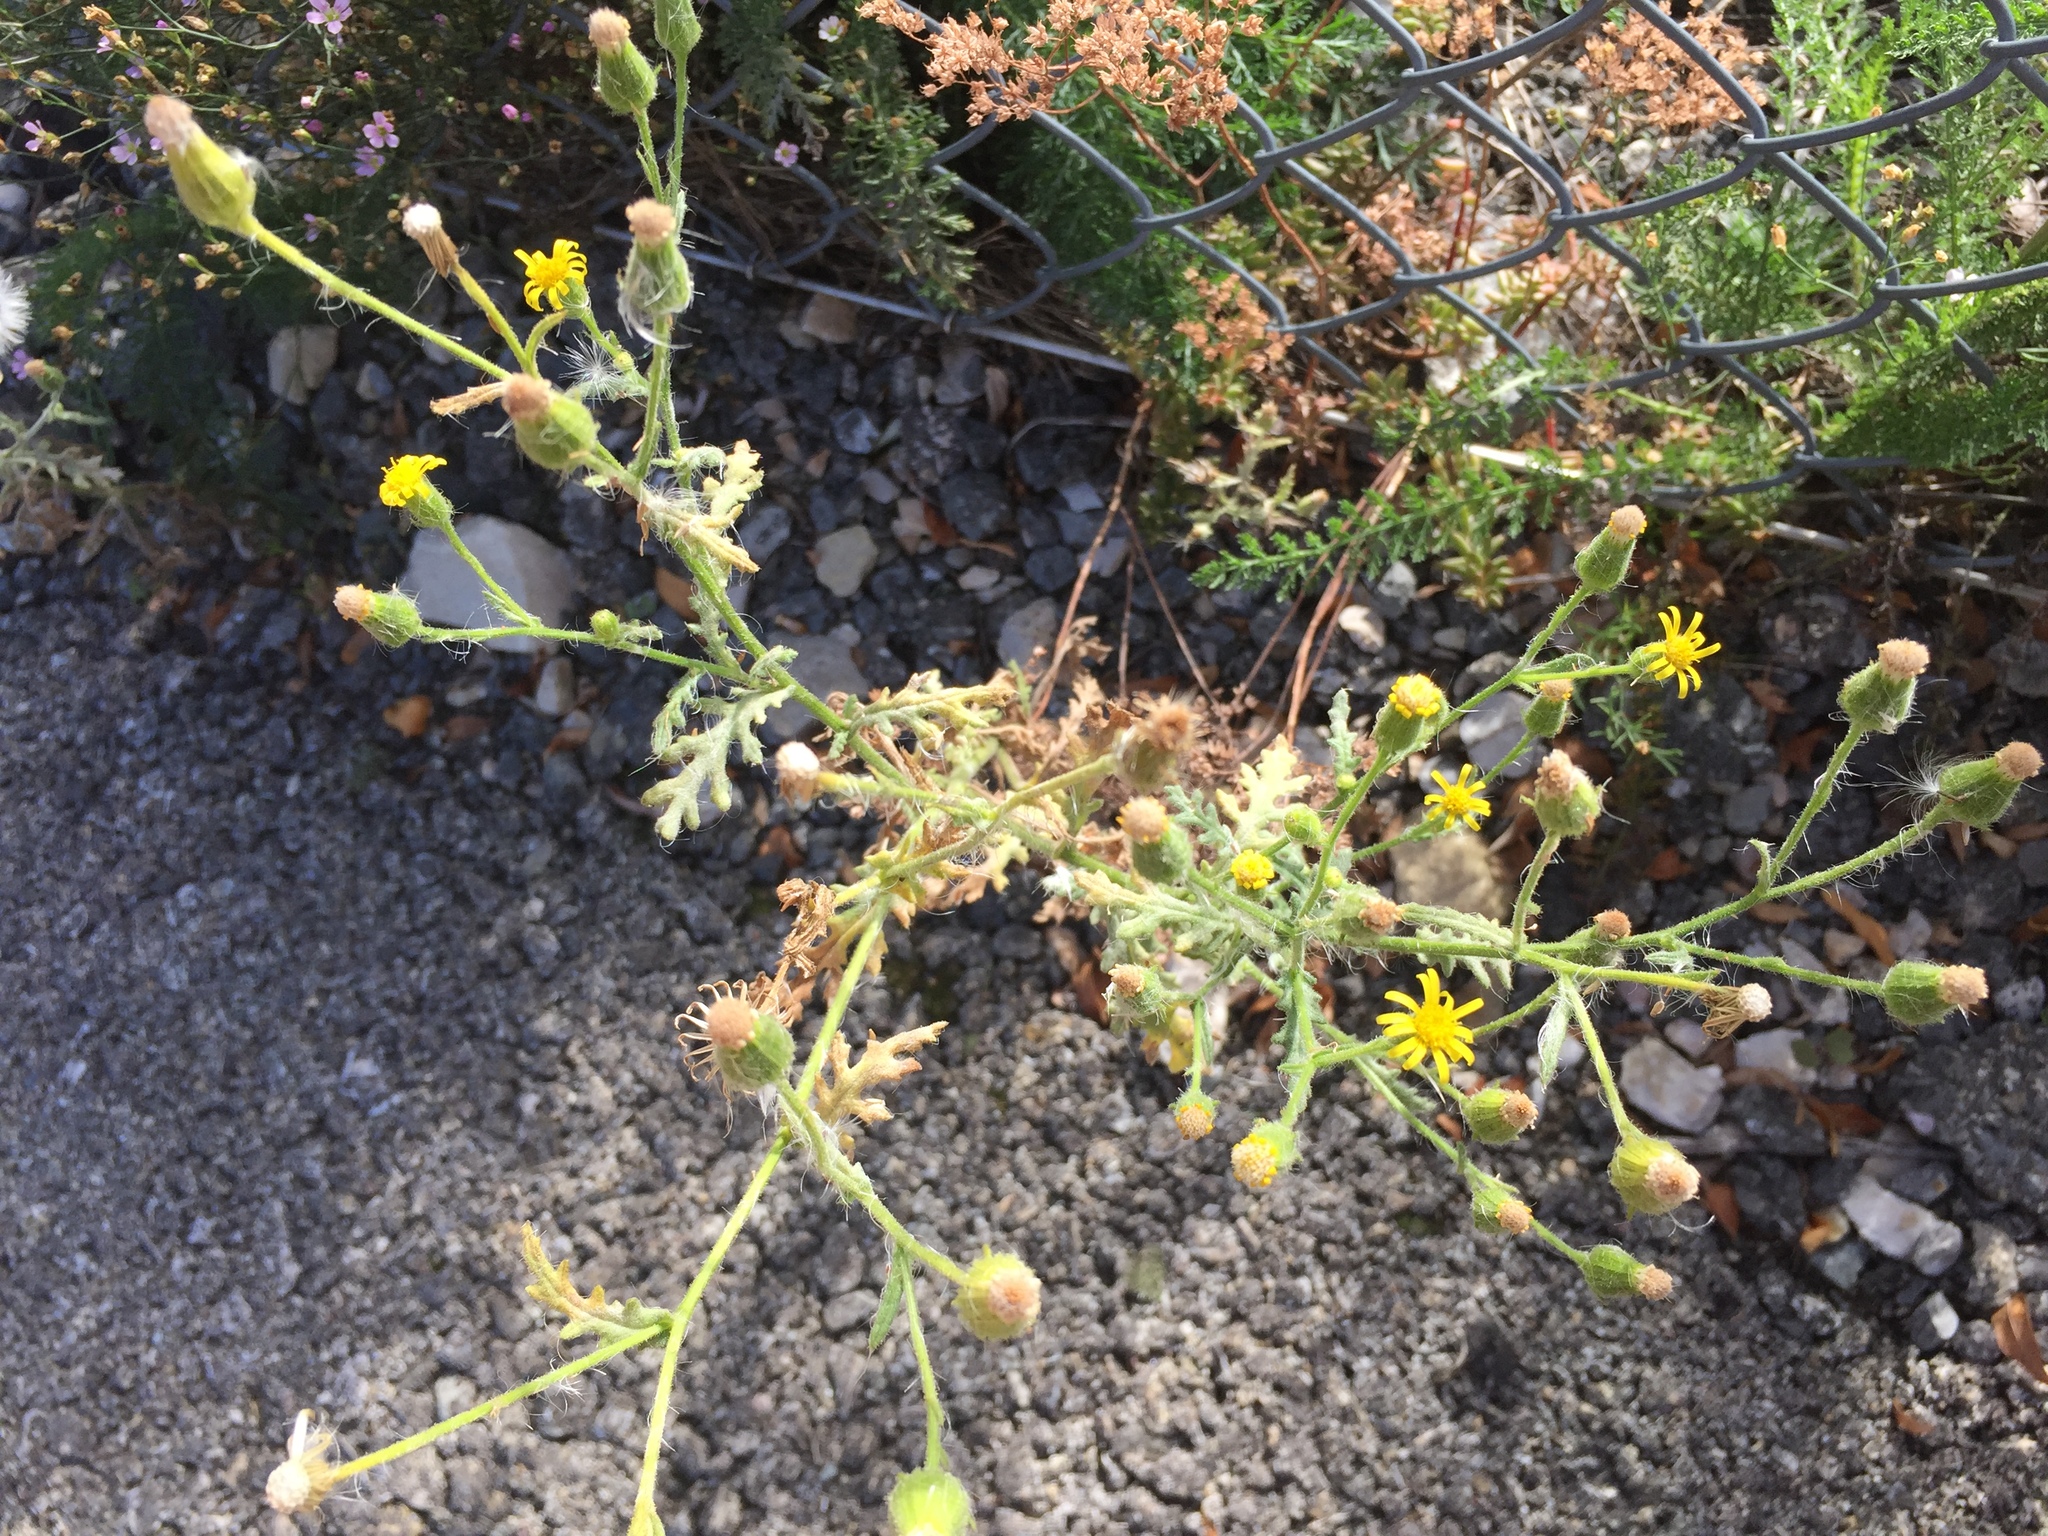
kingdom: Plantae
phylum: Tracheophyta
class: Magnoliopsida
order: Asterales
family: Asteraceae
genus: Senecio
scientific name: Senecio viscosus
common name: Sticky groundsel
